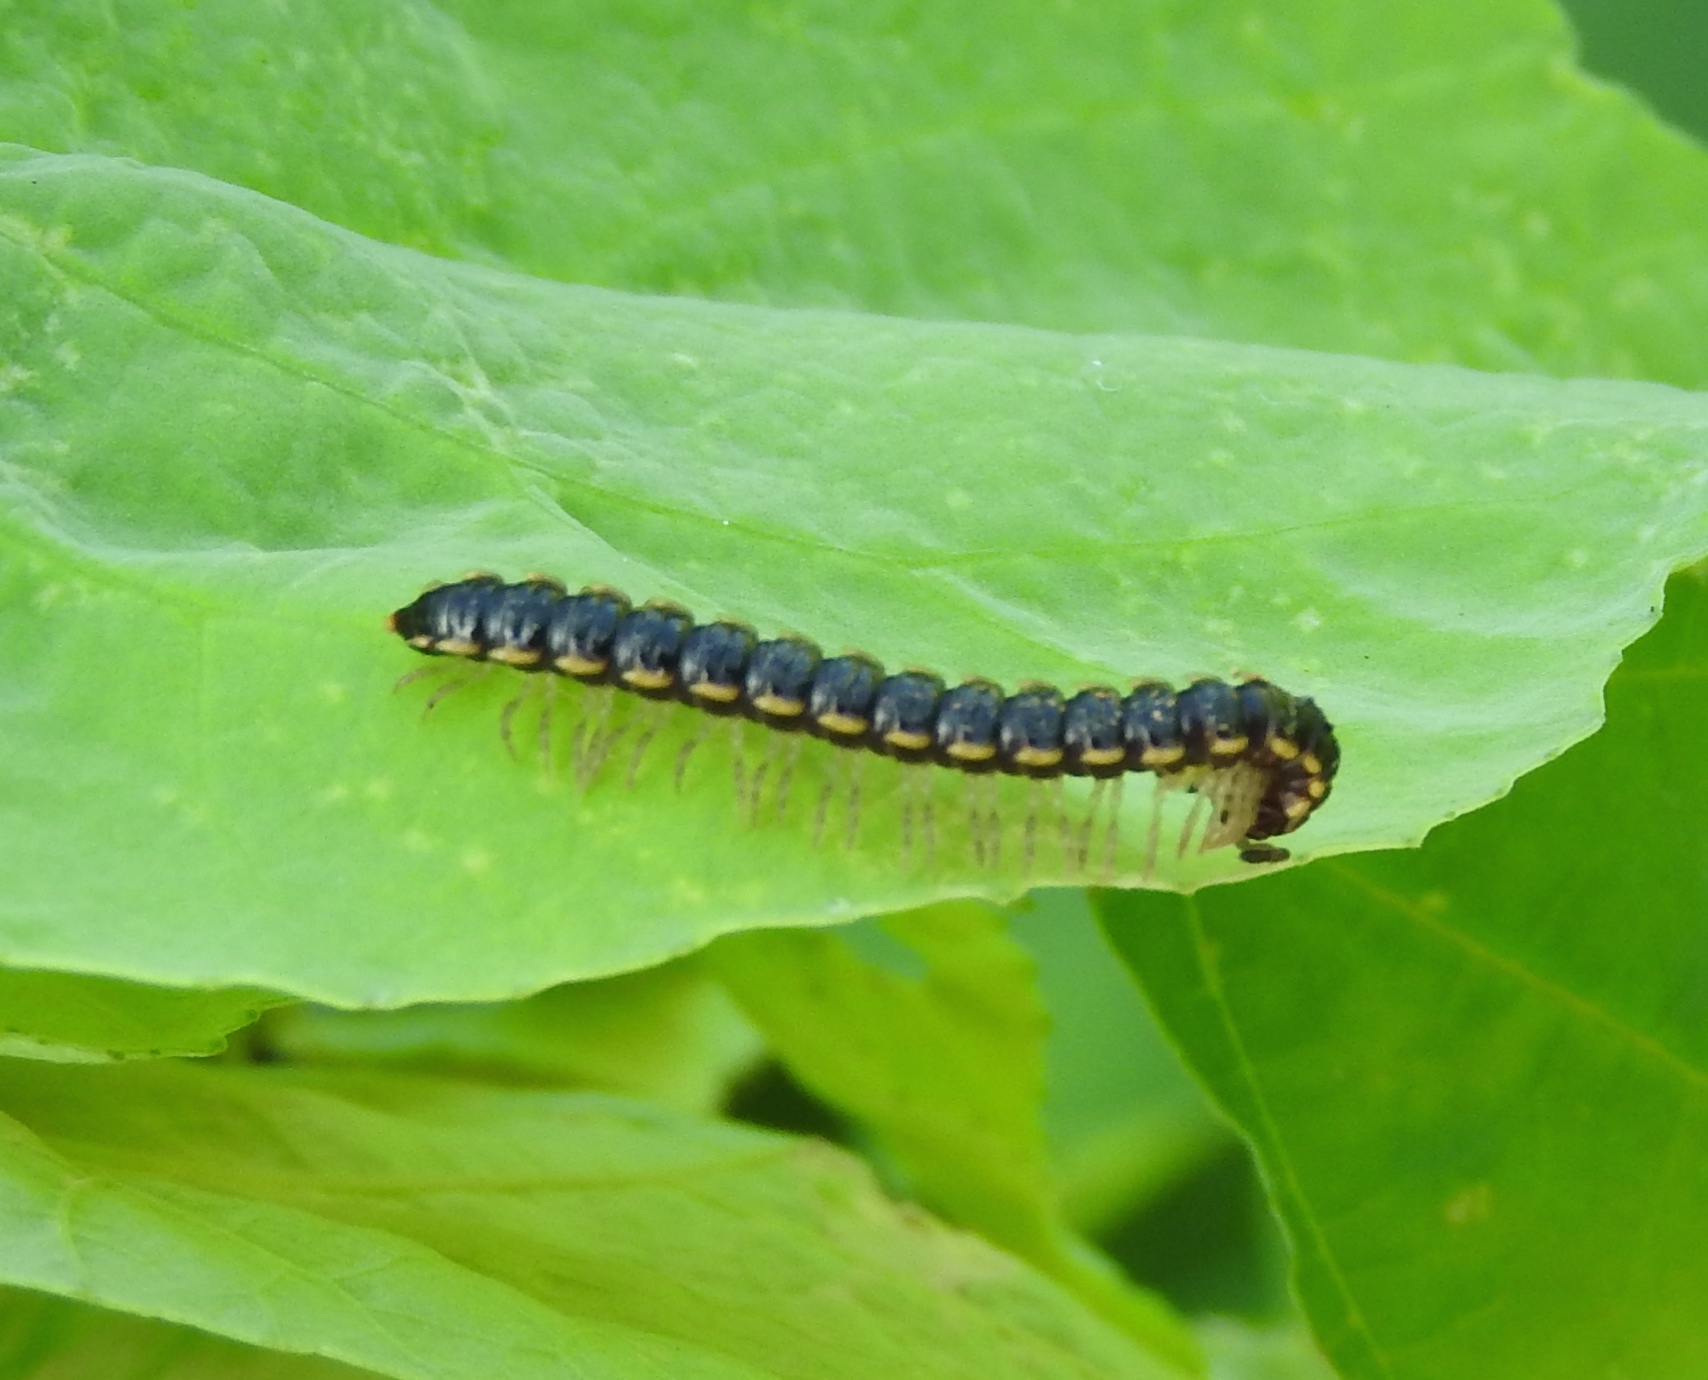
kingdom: Animalia
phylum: Arthropoda
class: Diplopoda
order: Polydesmida
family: Paradoxosomatidae
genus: Orthomorpha
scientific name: Orthomorpha coarctata
